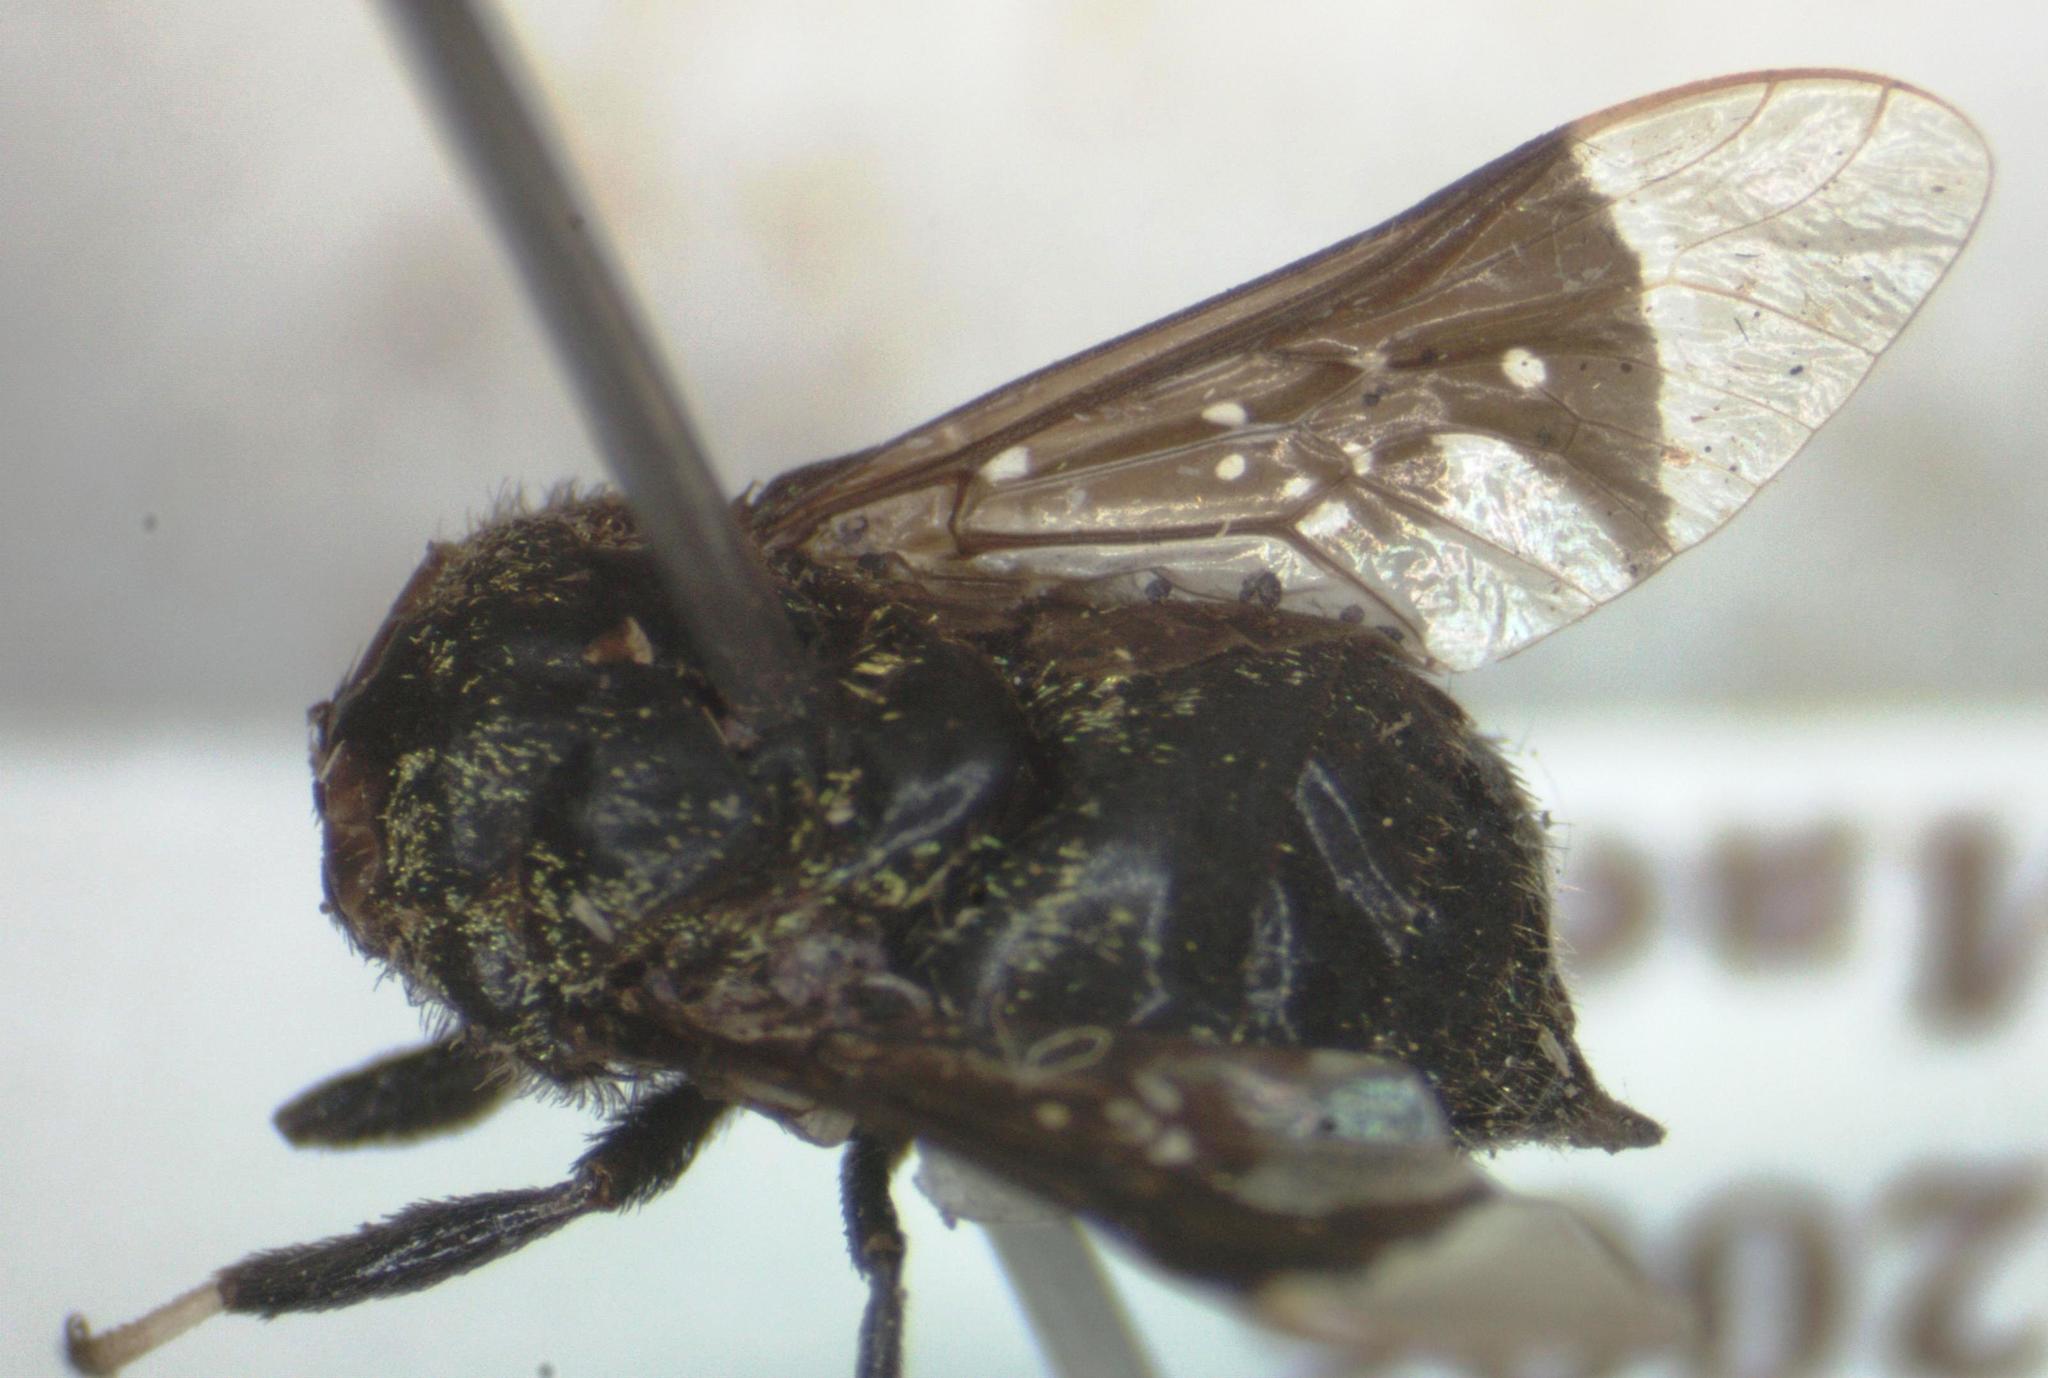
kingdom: Animalia
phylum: Arthropoda
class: Insecta
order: Diptera
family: Tabanidae
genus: Lepiselaga
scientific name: Lepiselaga crassipes
